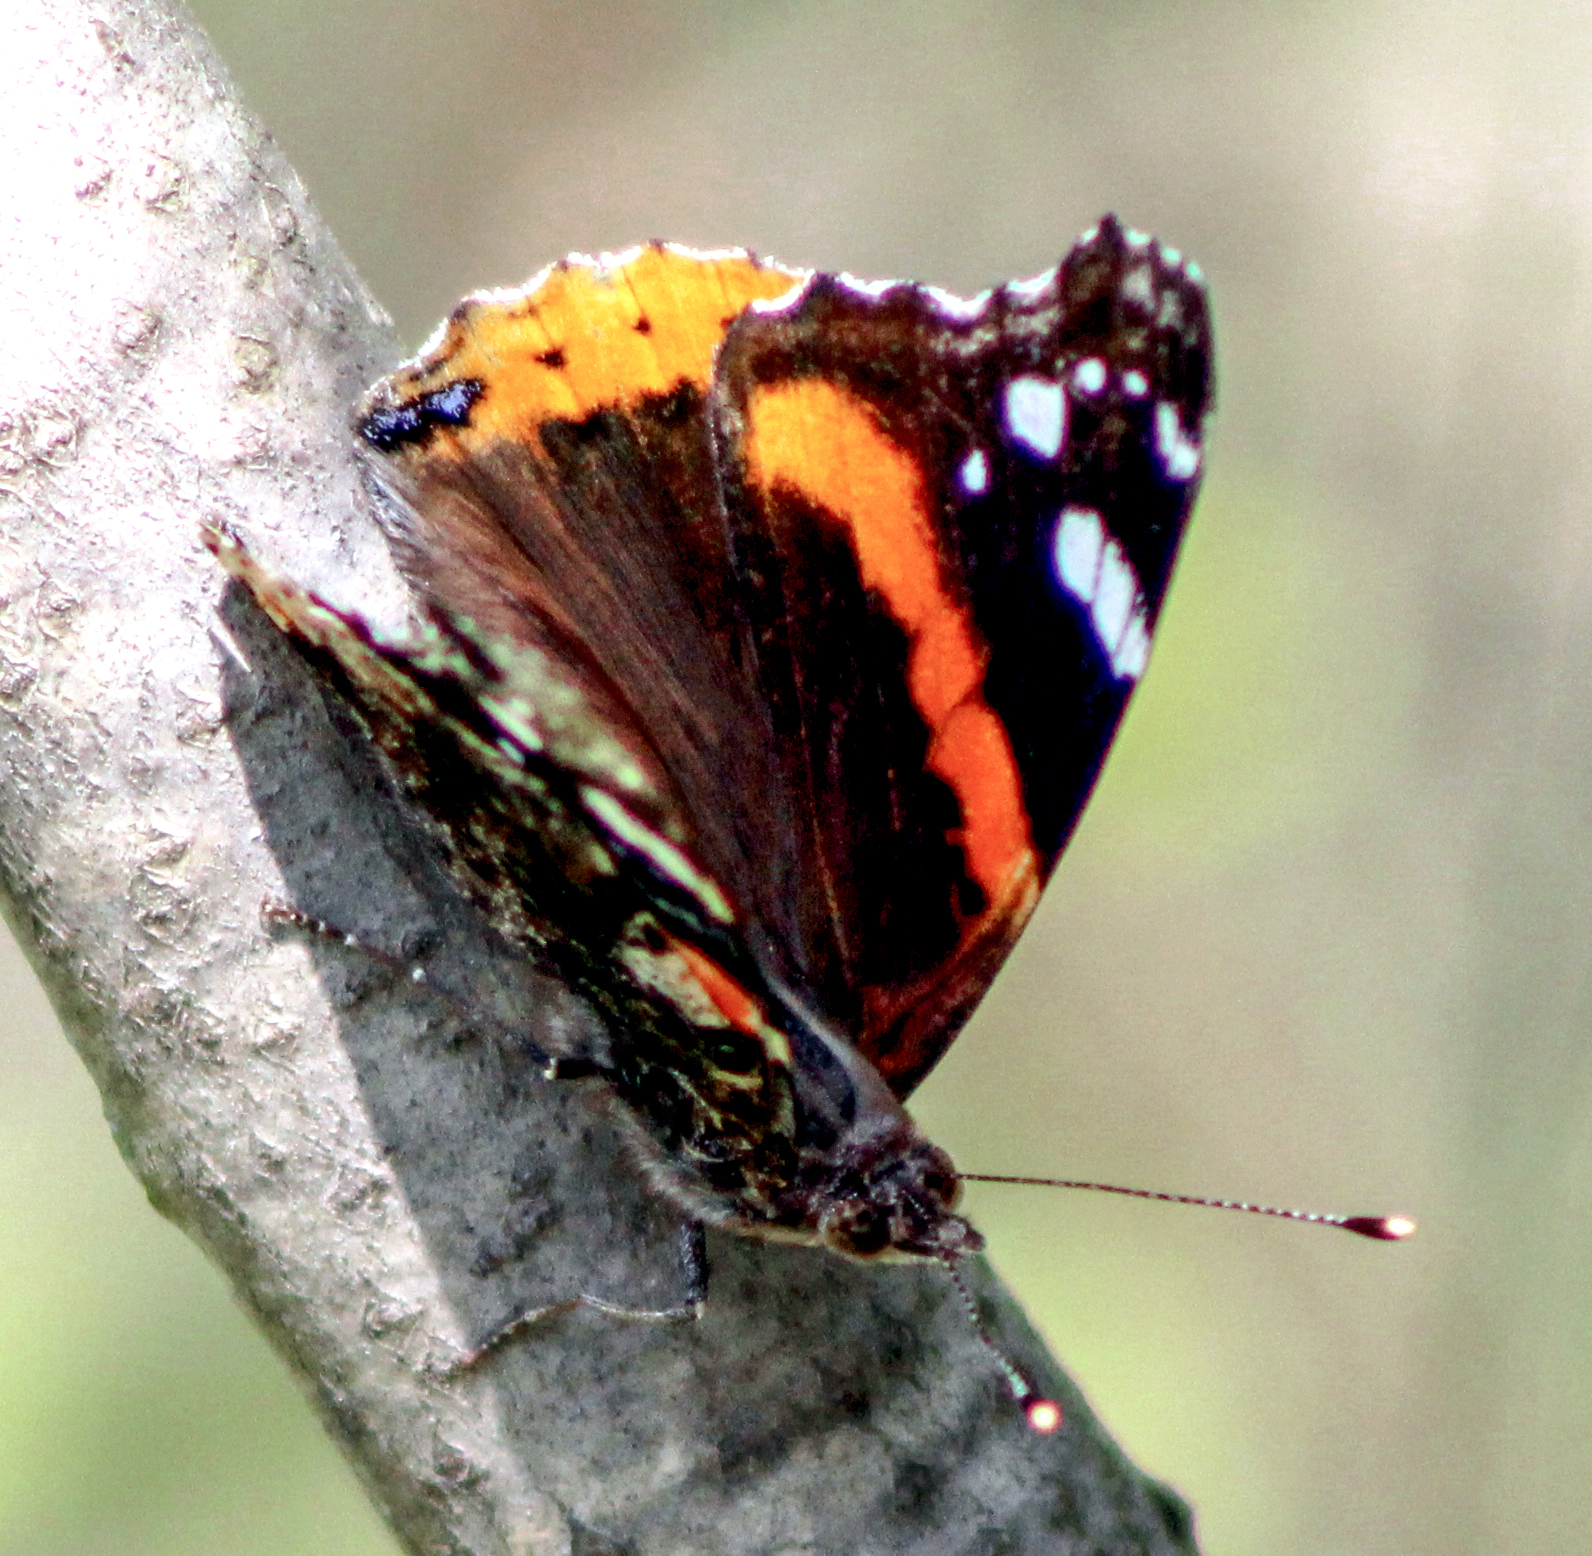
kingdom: Animalia
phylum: Arthropoda
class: Insecta
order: Lepidoptera
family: Nymphalidae
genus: Vanessa
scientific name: Vanessa atalanta
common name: Red admiral
